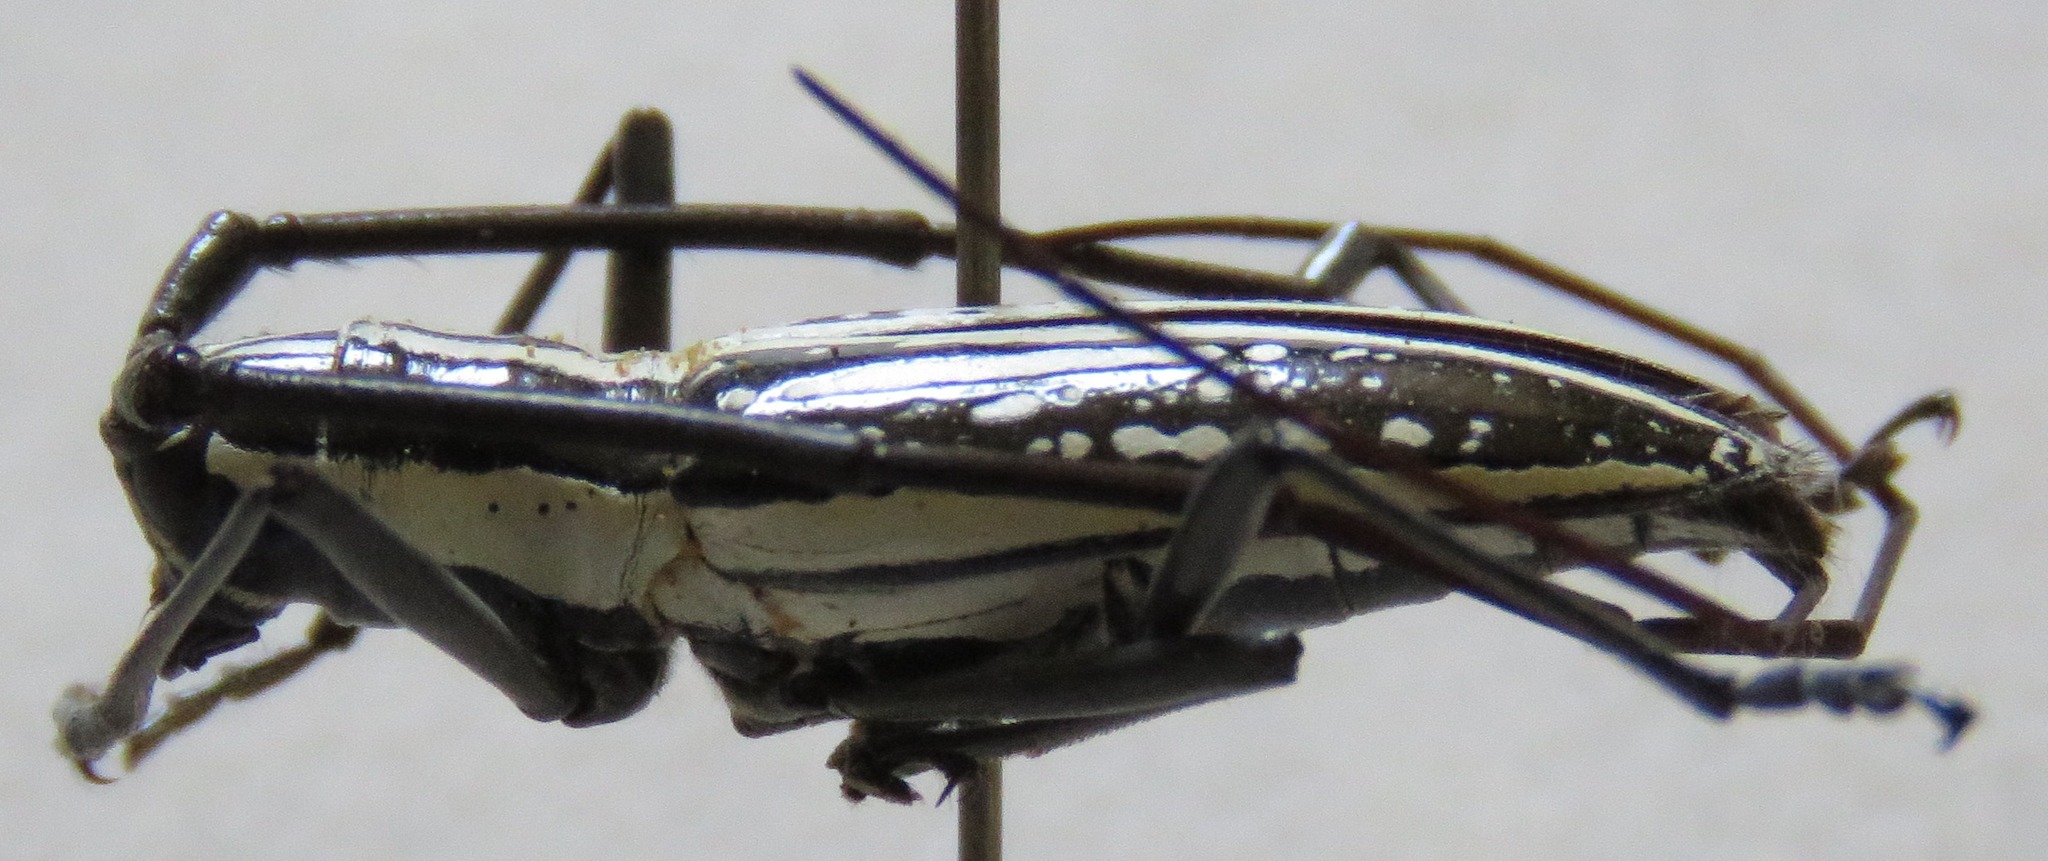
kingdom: Animalia
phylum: Arthropoda
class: Insecta
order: Coleoptera
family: Cerambycidae
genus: Ptychodes
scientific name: Ptychodes politus
